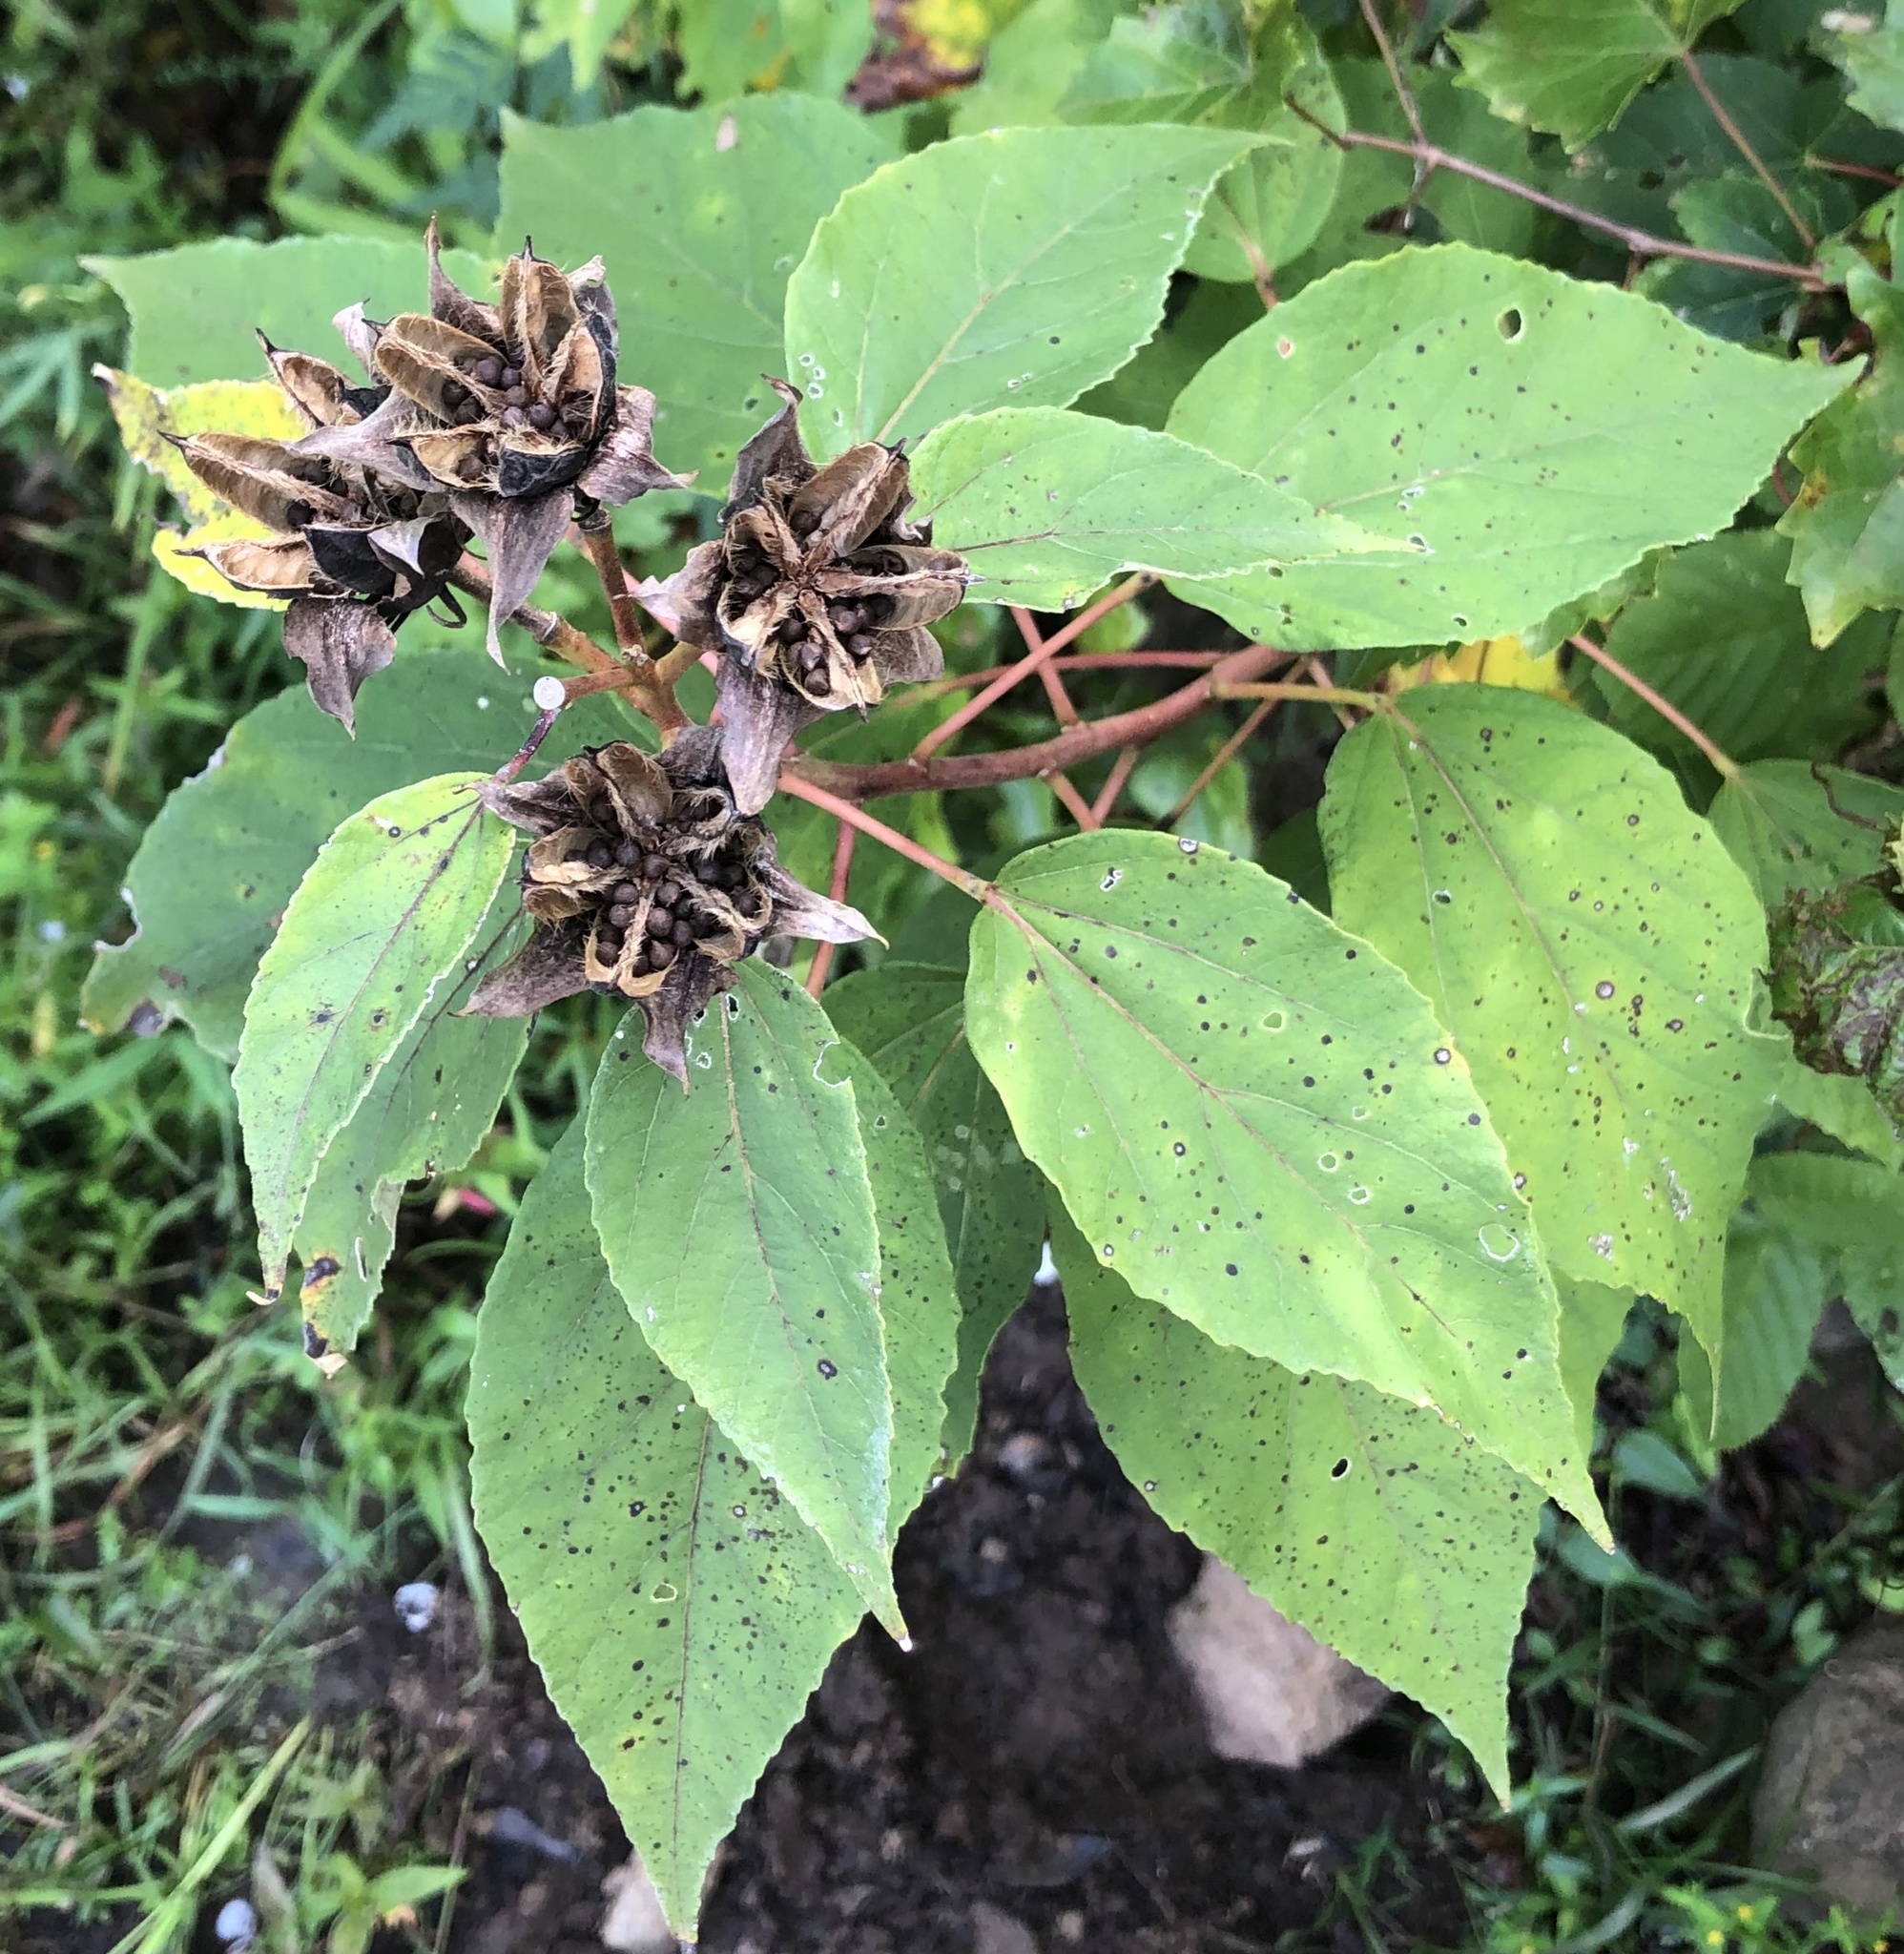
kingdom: Plantae
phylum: Tracheophyta
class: Magnoliopsida
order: Malvales
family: Malvaceae
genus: Hibiscus
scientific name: Hibiscus moscheutos
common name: Common rose-mallow
